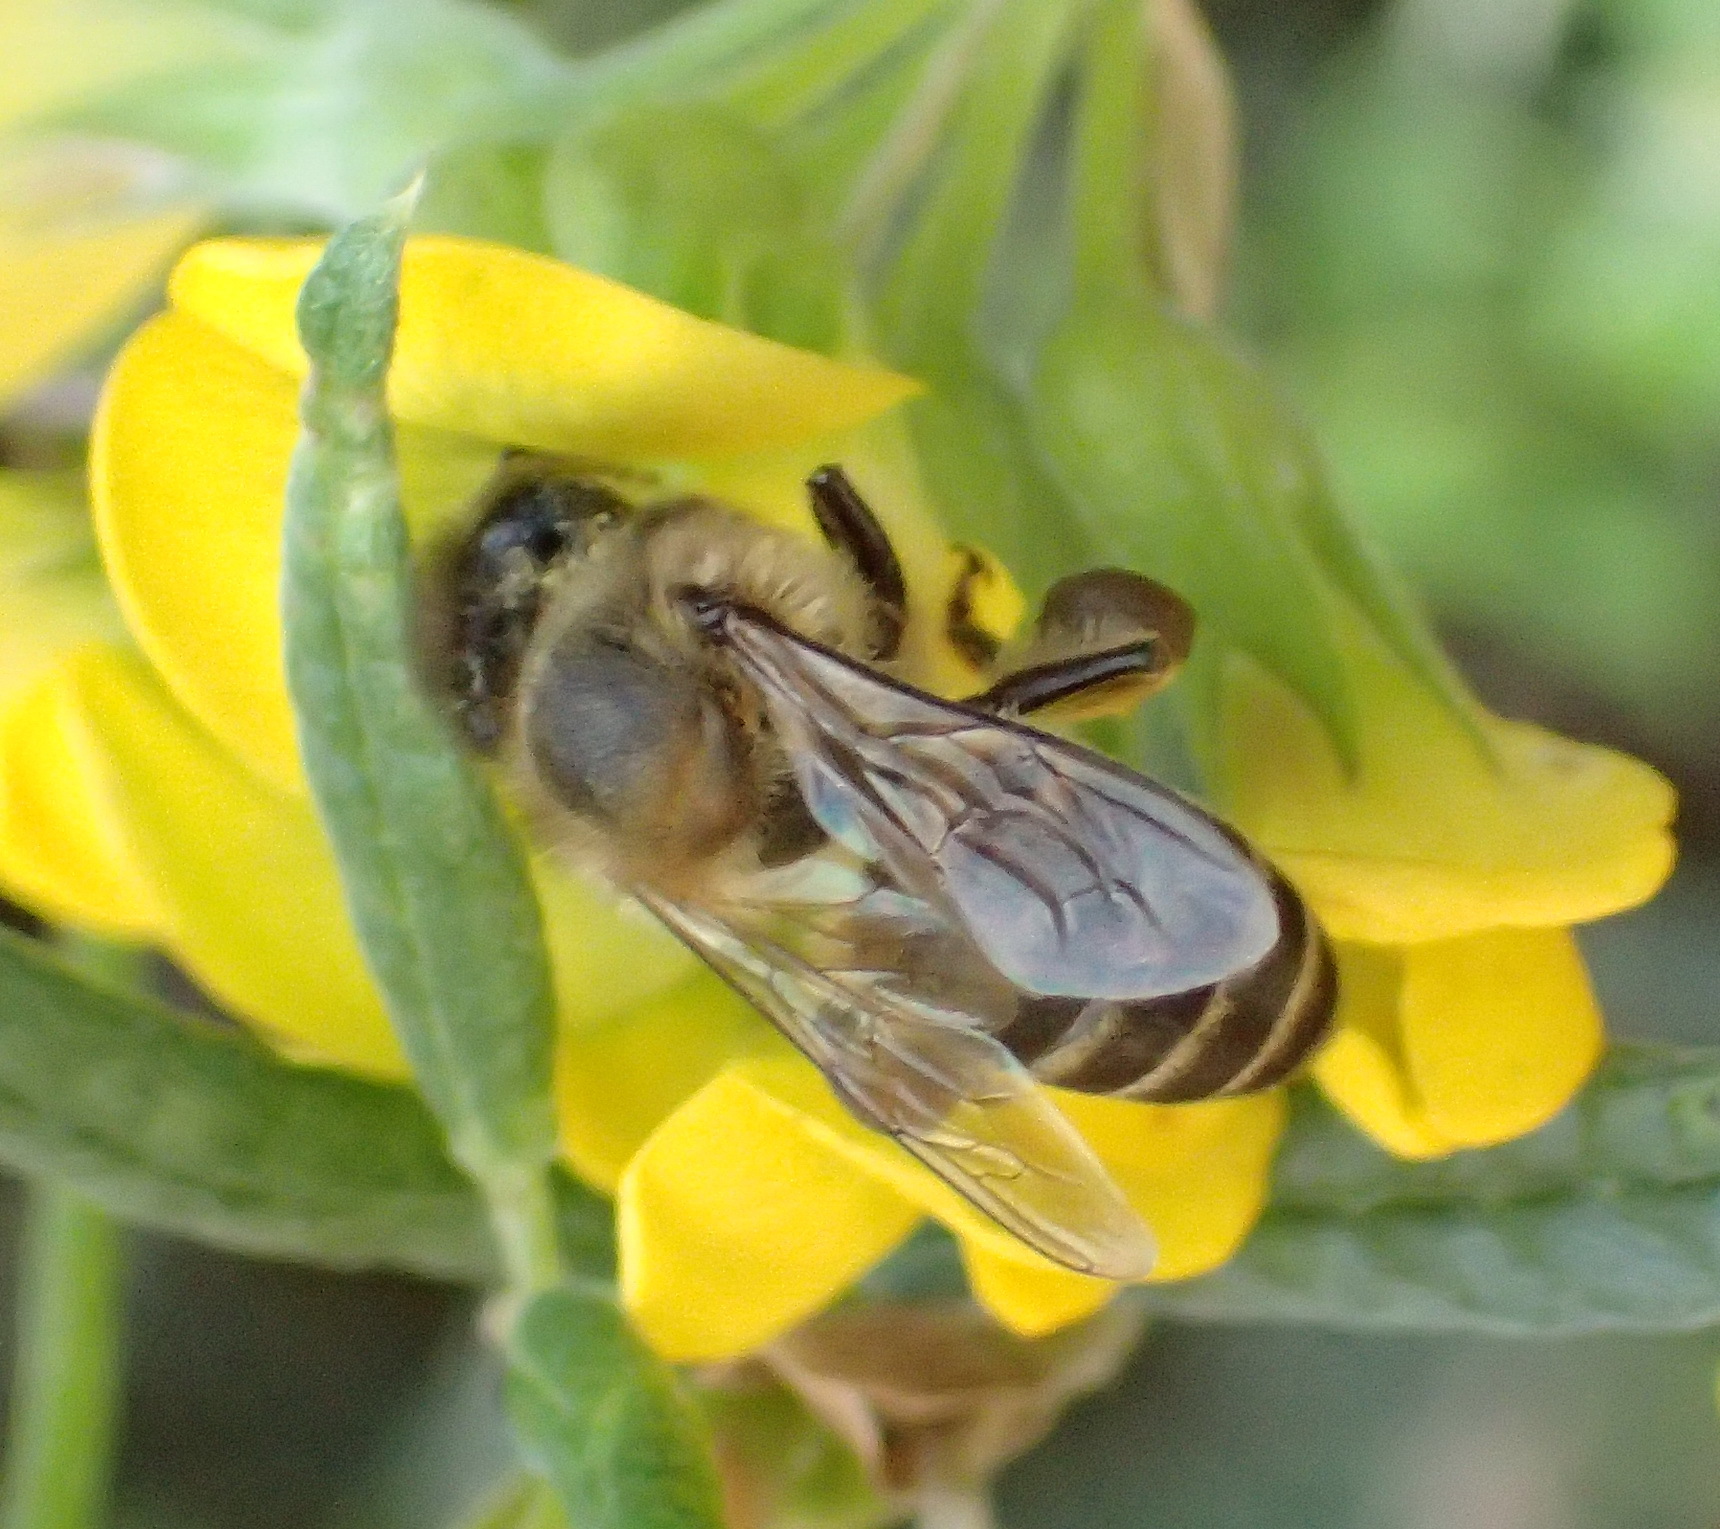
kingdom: Animalia
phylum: Arthropoda
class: Insecta
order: Hymenoptera
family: Apidae
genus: Apis
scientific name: Apis mellifera
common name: Honey bee
